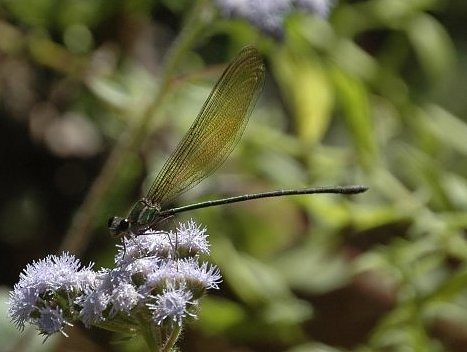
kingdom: Animalia
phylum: Arthropoda
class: Insecta
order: Odonata
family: Calopterygidae
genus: Phaon
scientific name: Phaon rasoherinae
